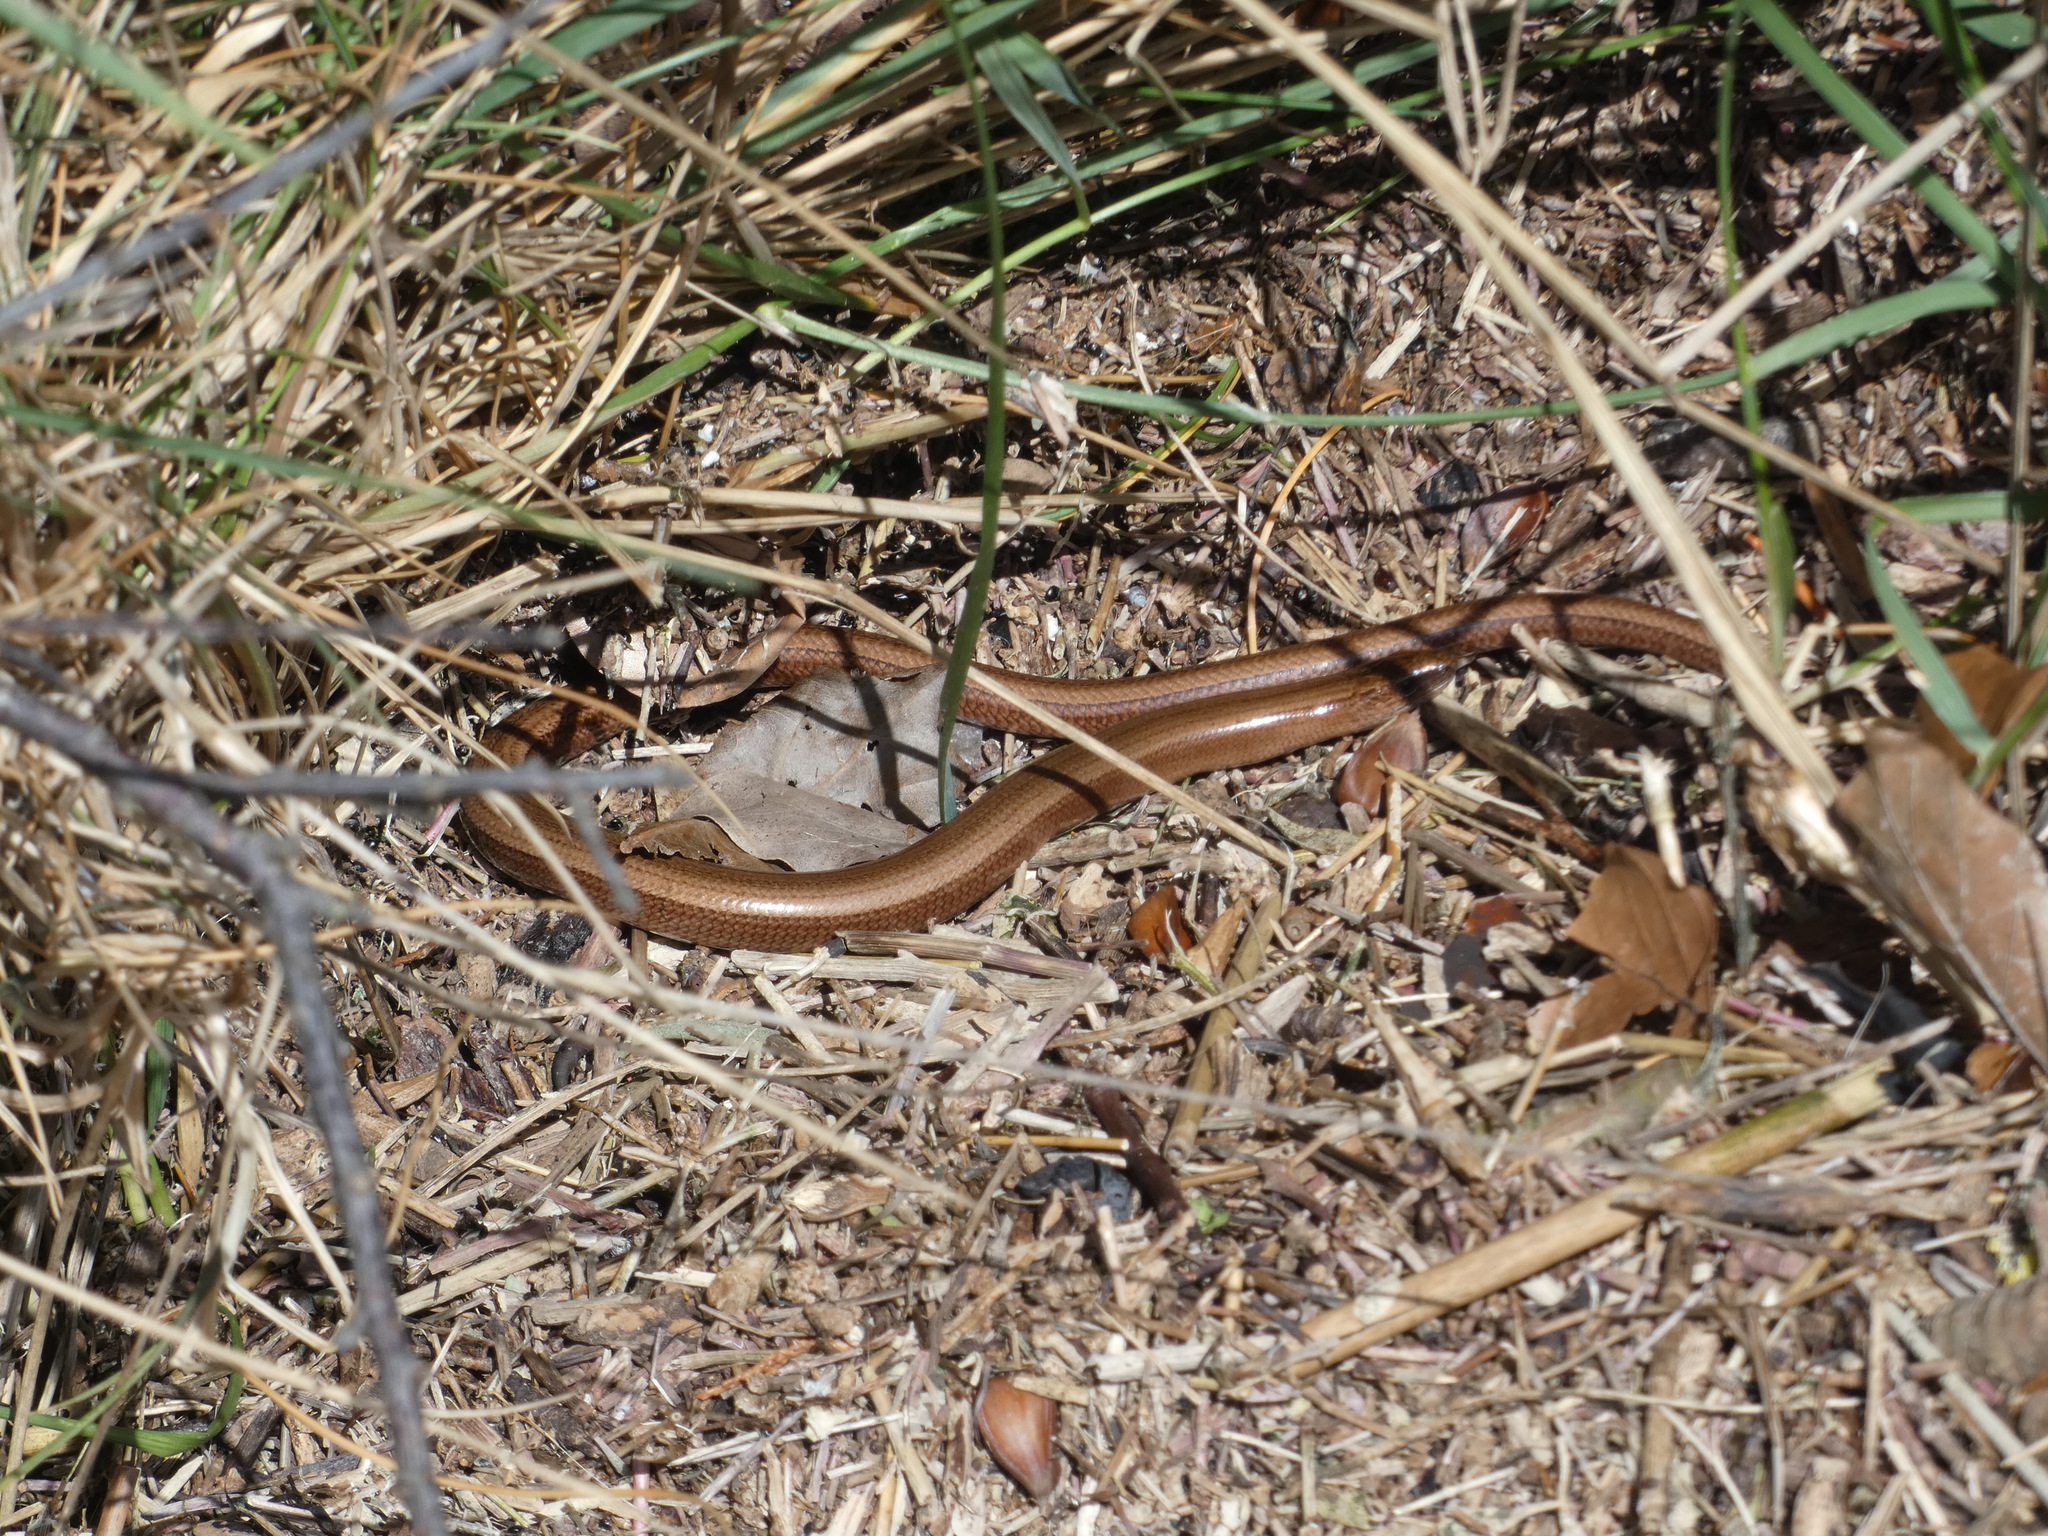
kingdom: Animalia
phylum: Chordata
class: Squamata
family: Anguidae
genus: Anguis
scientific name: Anguis fragilis
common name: Slow worm
